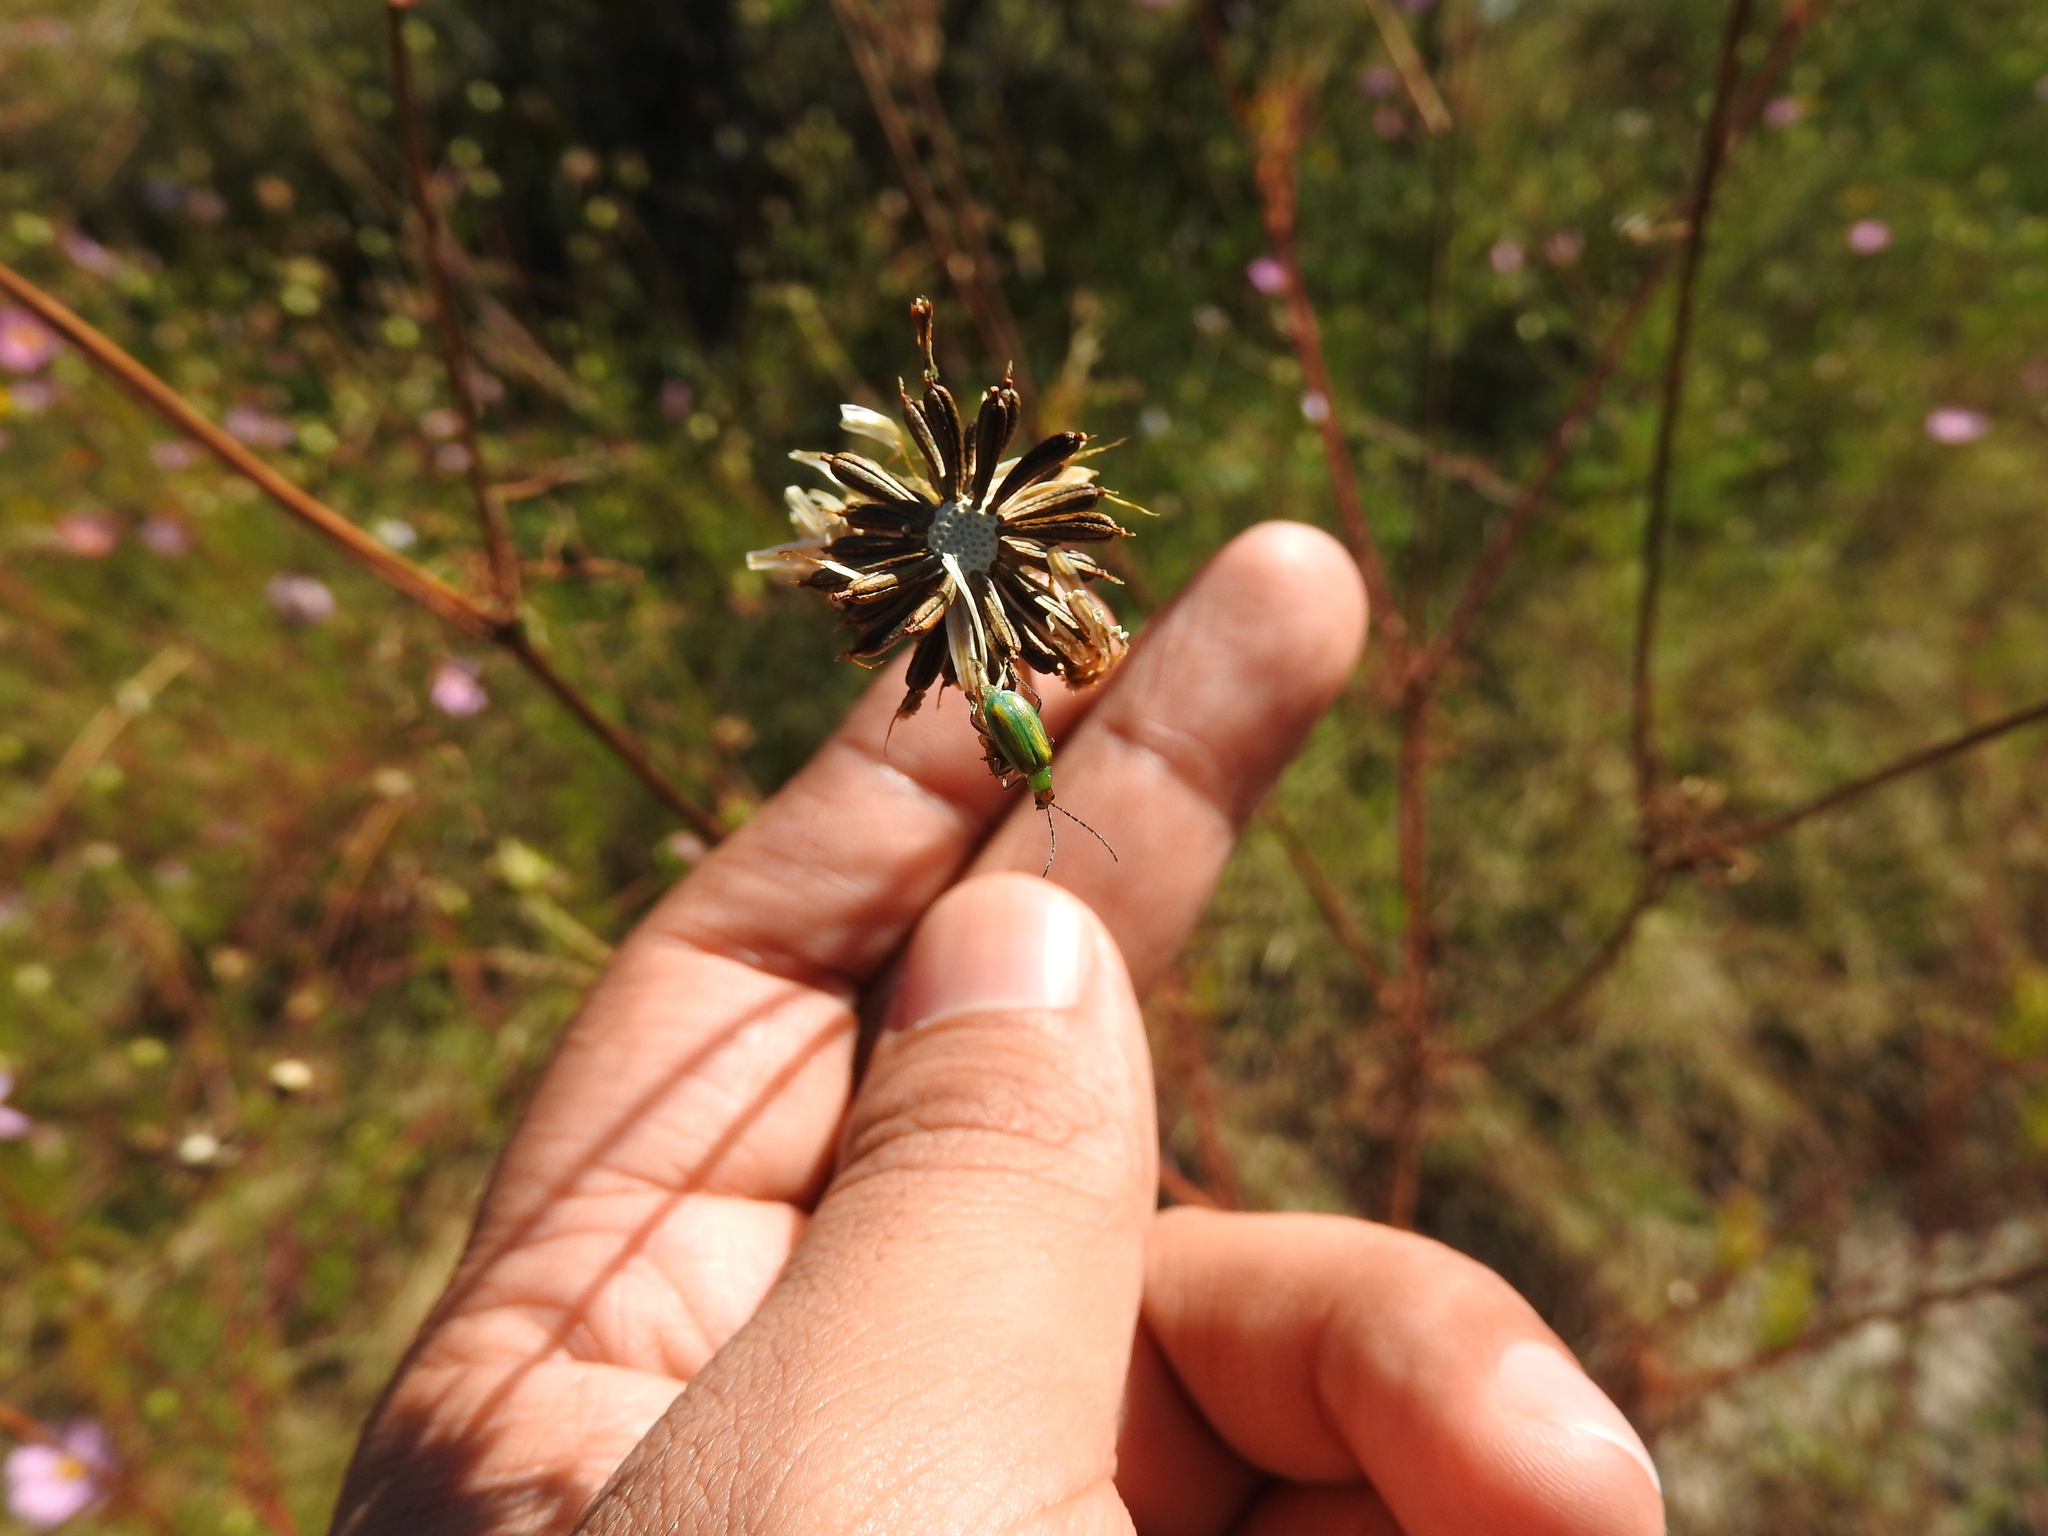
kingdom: Plantae
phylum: Tracheophyta
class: Magnoliopsida
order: Asterales
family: Asteraceae
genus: Cosmos
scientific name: Cosmos bipinnatus
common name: Garden cosmos
